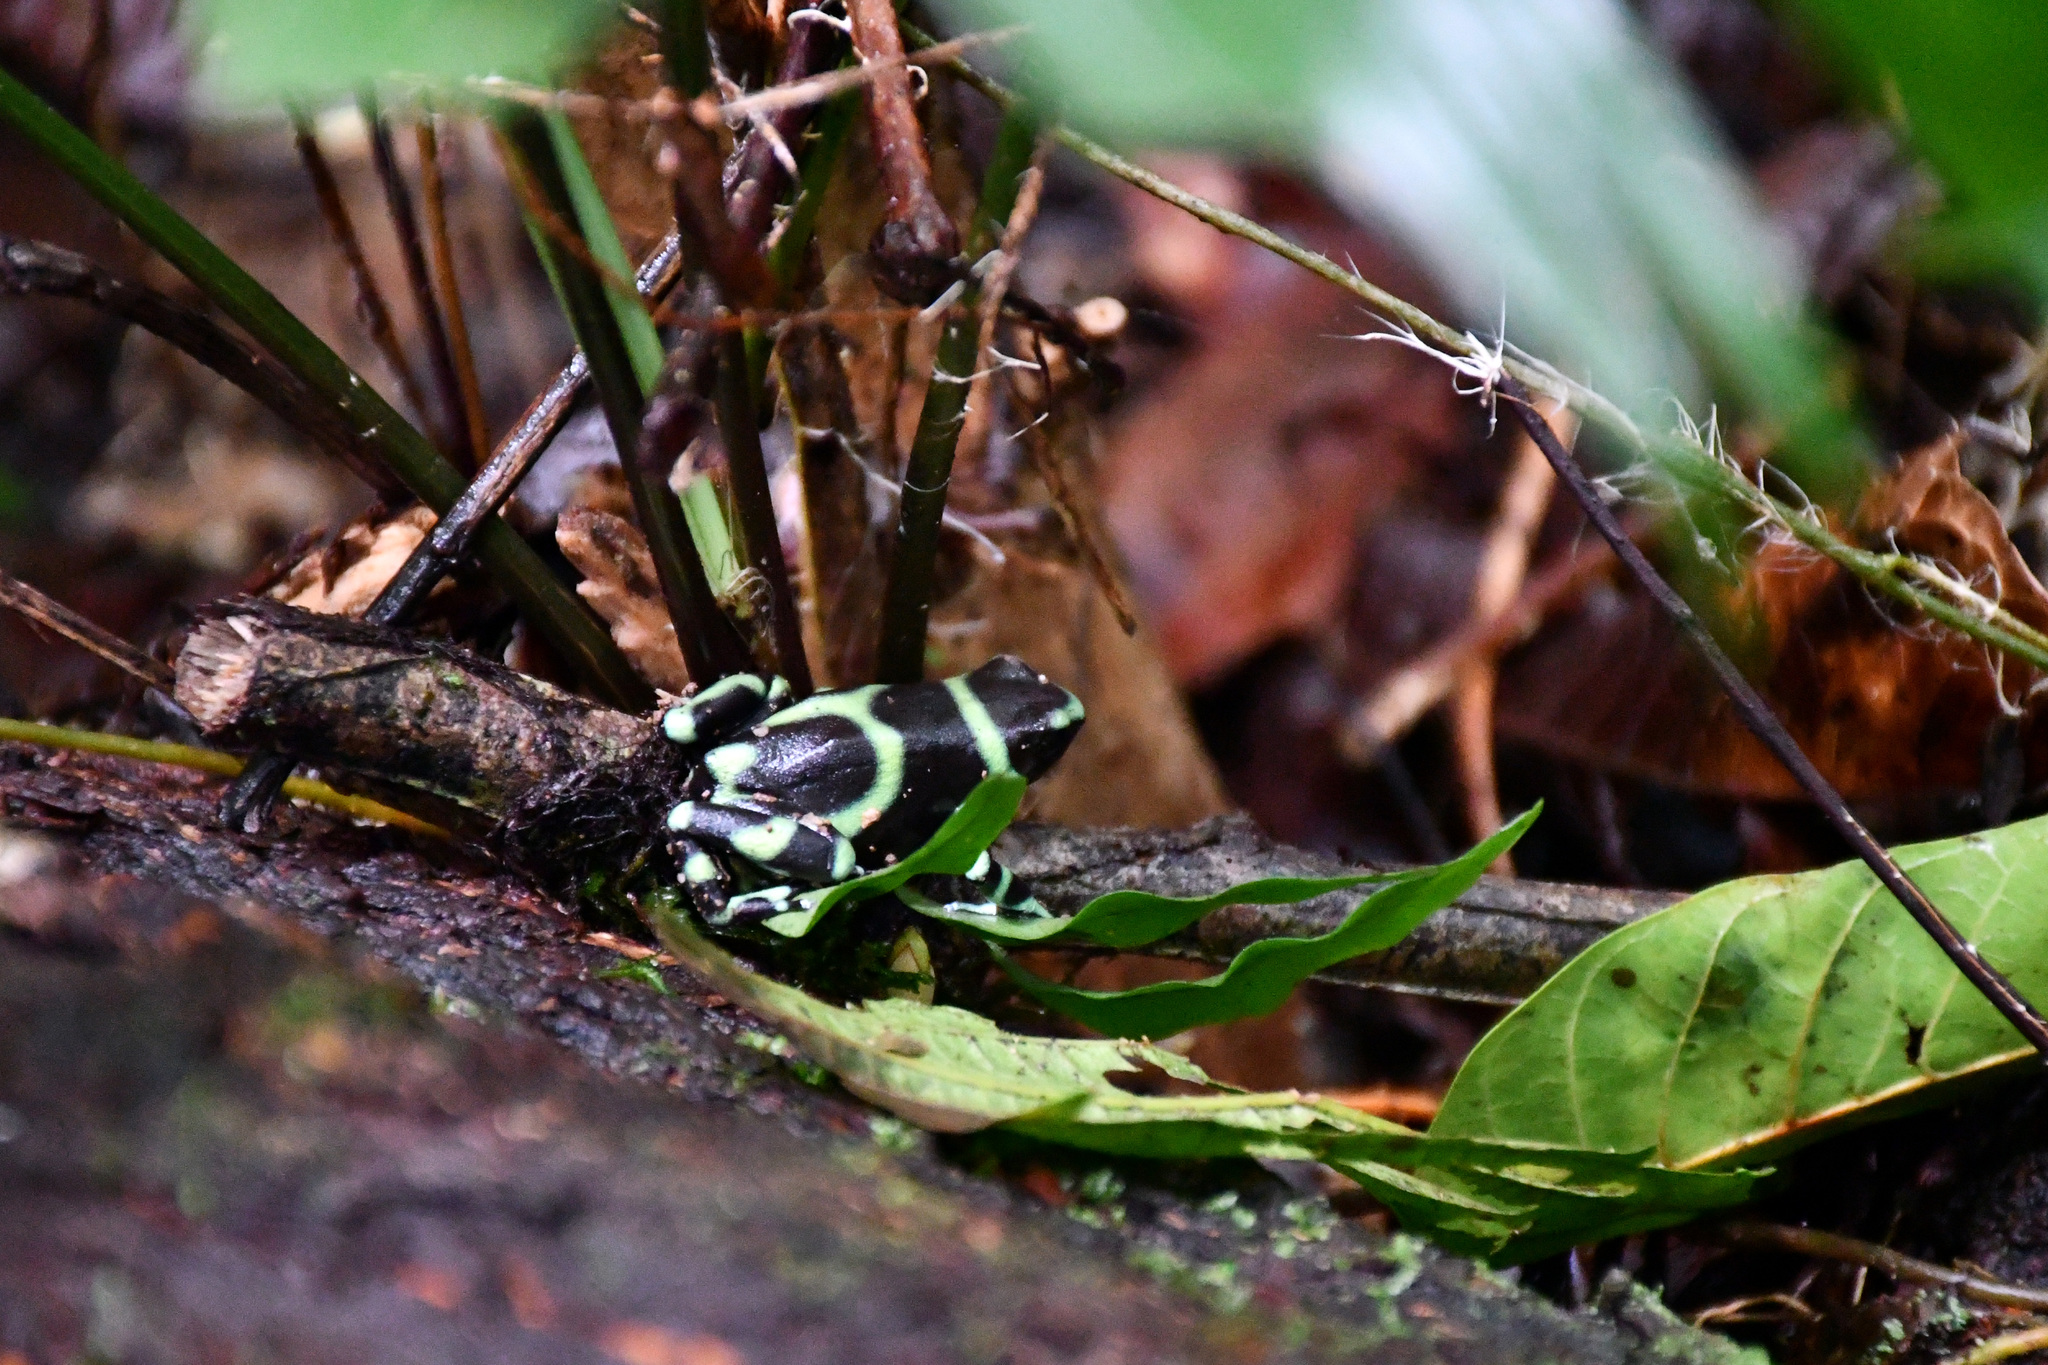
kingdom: Animalia
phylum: Chordata
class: Amphibia
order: Anura
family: Dendrobatidae
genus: Dendrobates
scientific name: Dendrobates auratus
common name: Green and black poison dart frog
